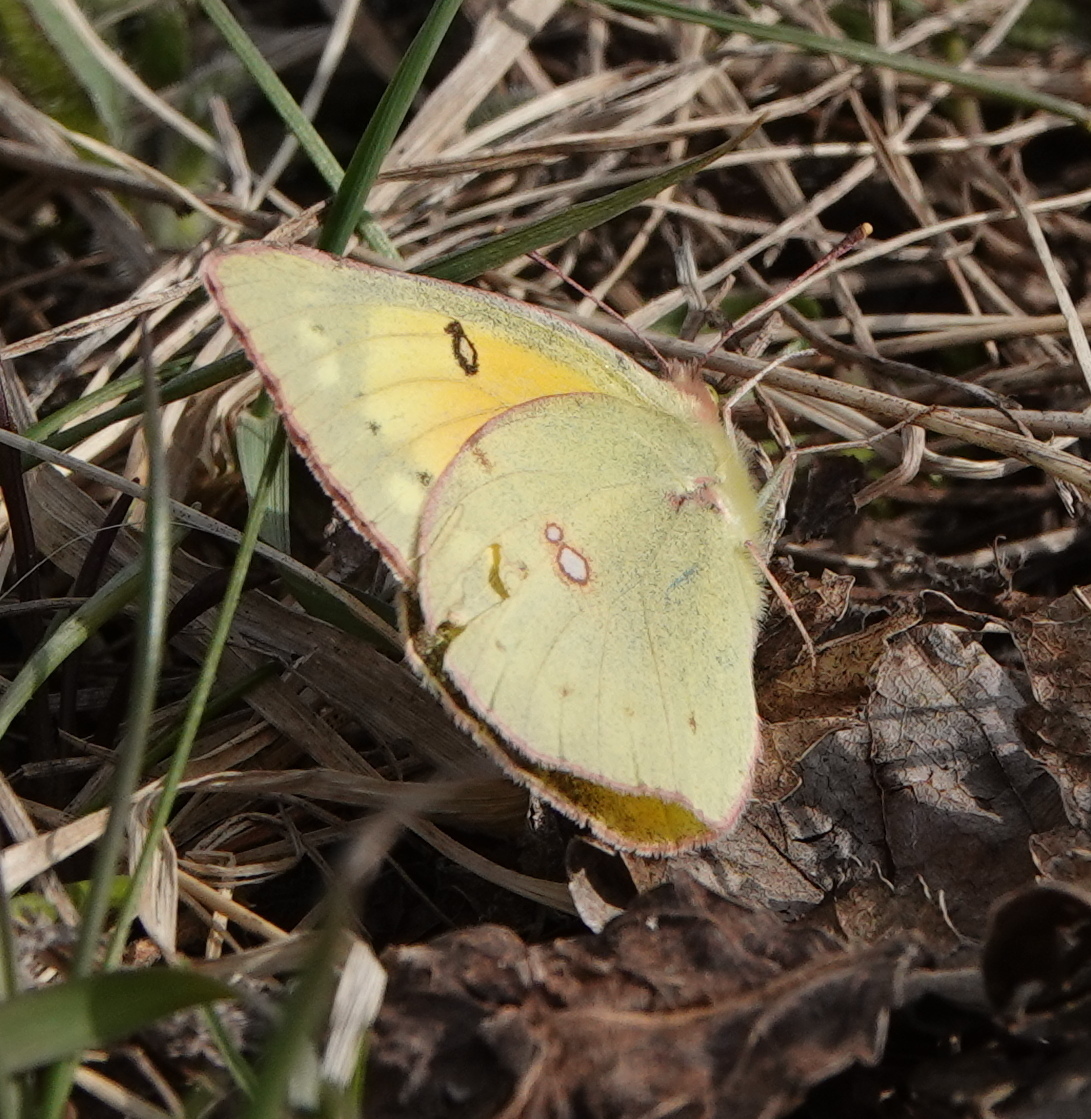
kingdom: Animalia
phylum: Arthropoda
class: Insecta
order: Lepidoptera
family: Pieridae
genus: Colias
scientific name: Colias eurytheme
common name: Alfalfa butterfly
